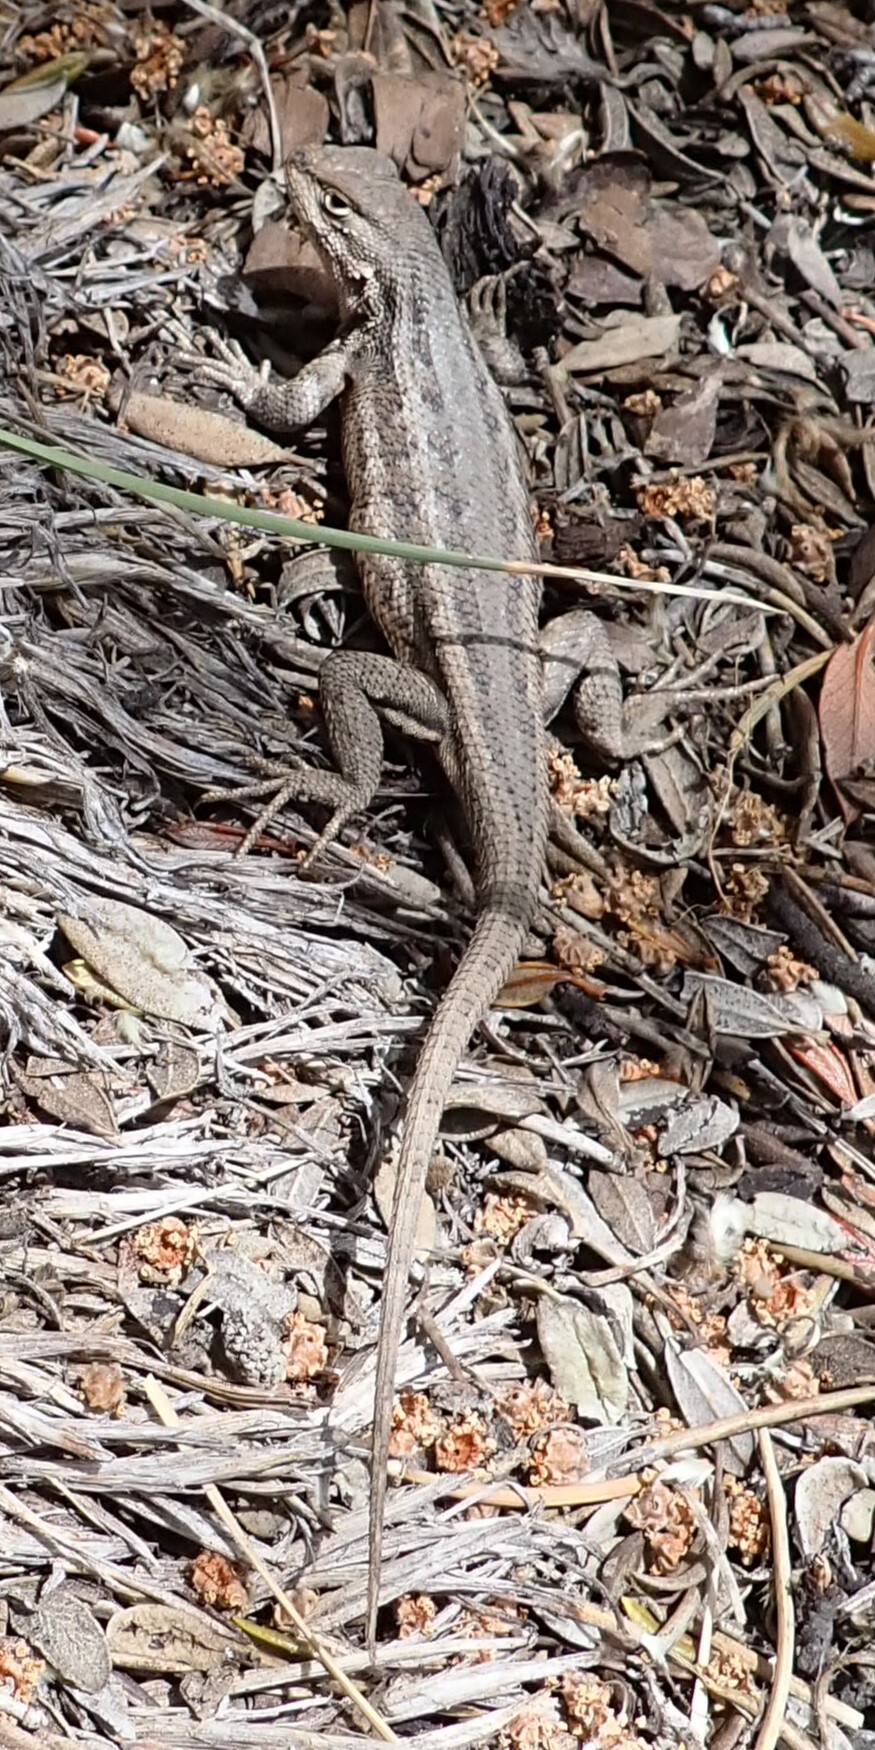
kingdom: Animalia
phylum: Chordata
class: Squamata
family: Phrynosomatidae
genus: Sceloporus
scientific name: Sceloporus graciosus
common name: Sagebrush lizard
